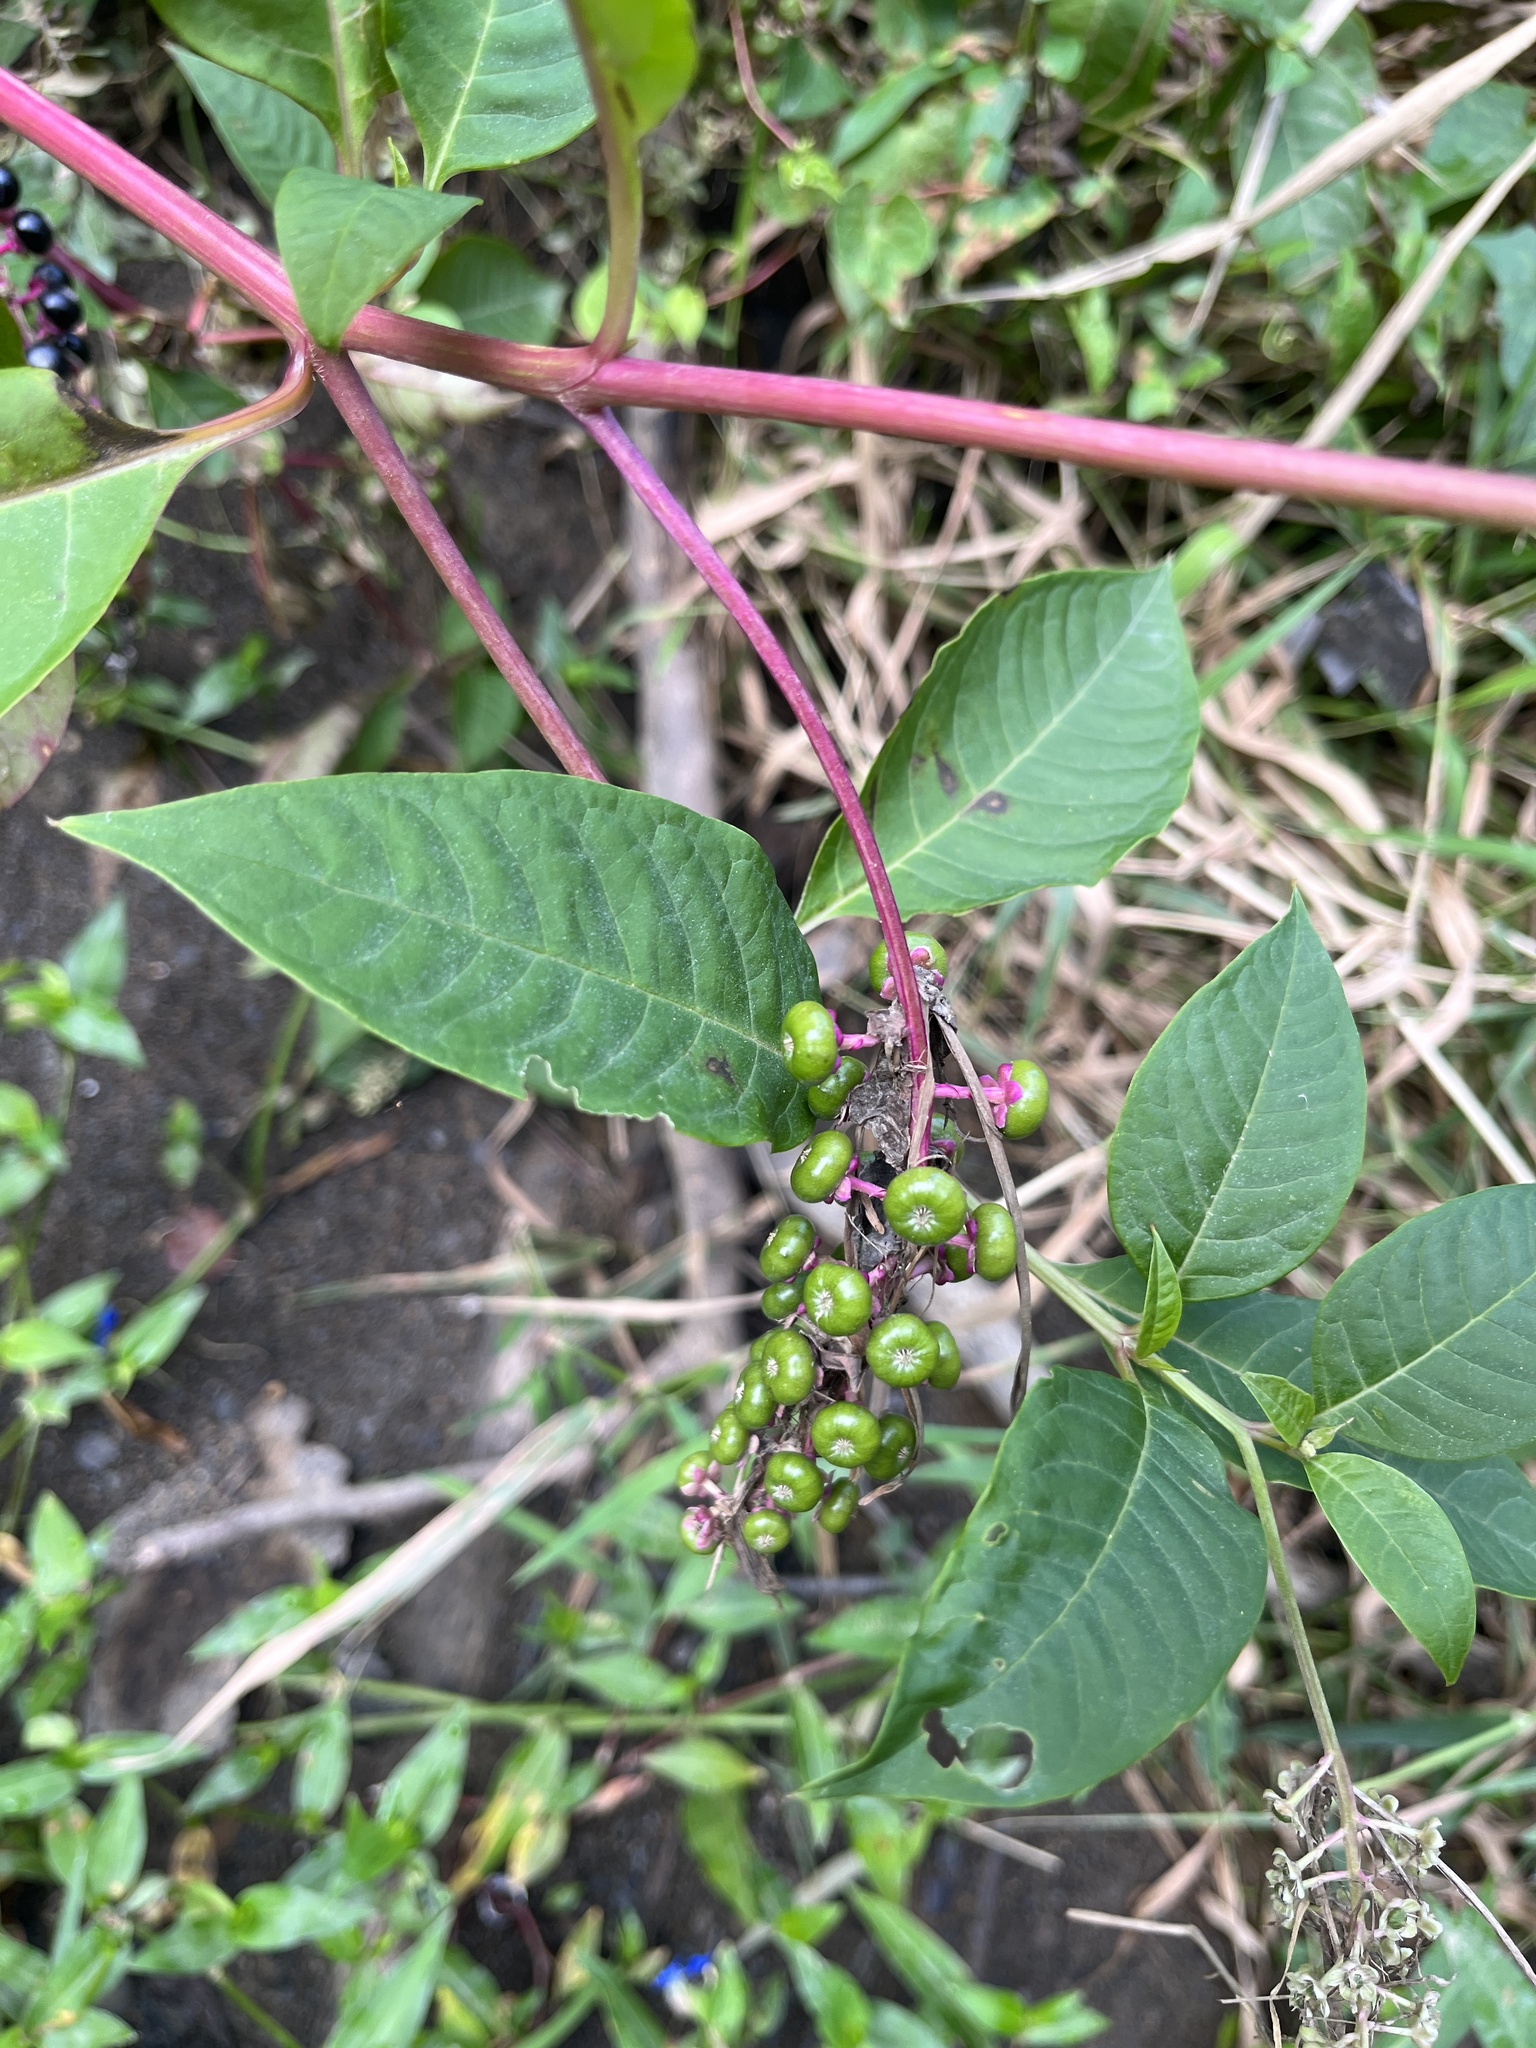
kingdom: Plantae
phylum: Tracheophyta
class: Magnoliopsida
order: Caryophyllales
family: Phytolaccaceae
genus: Phytolacca
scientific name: Phytolacca americana
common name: American pokeweed
